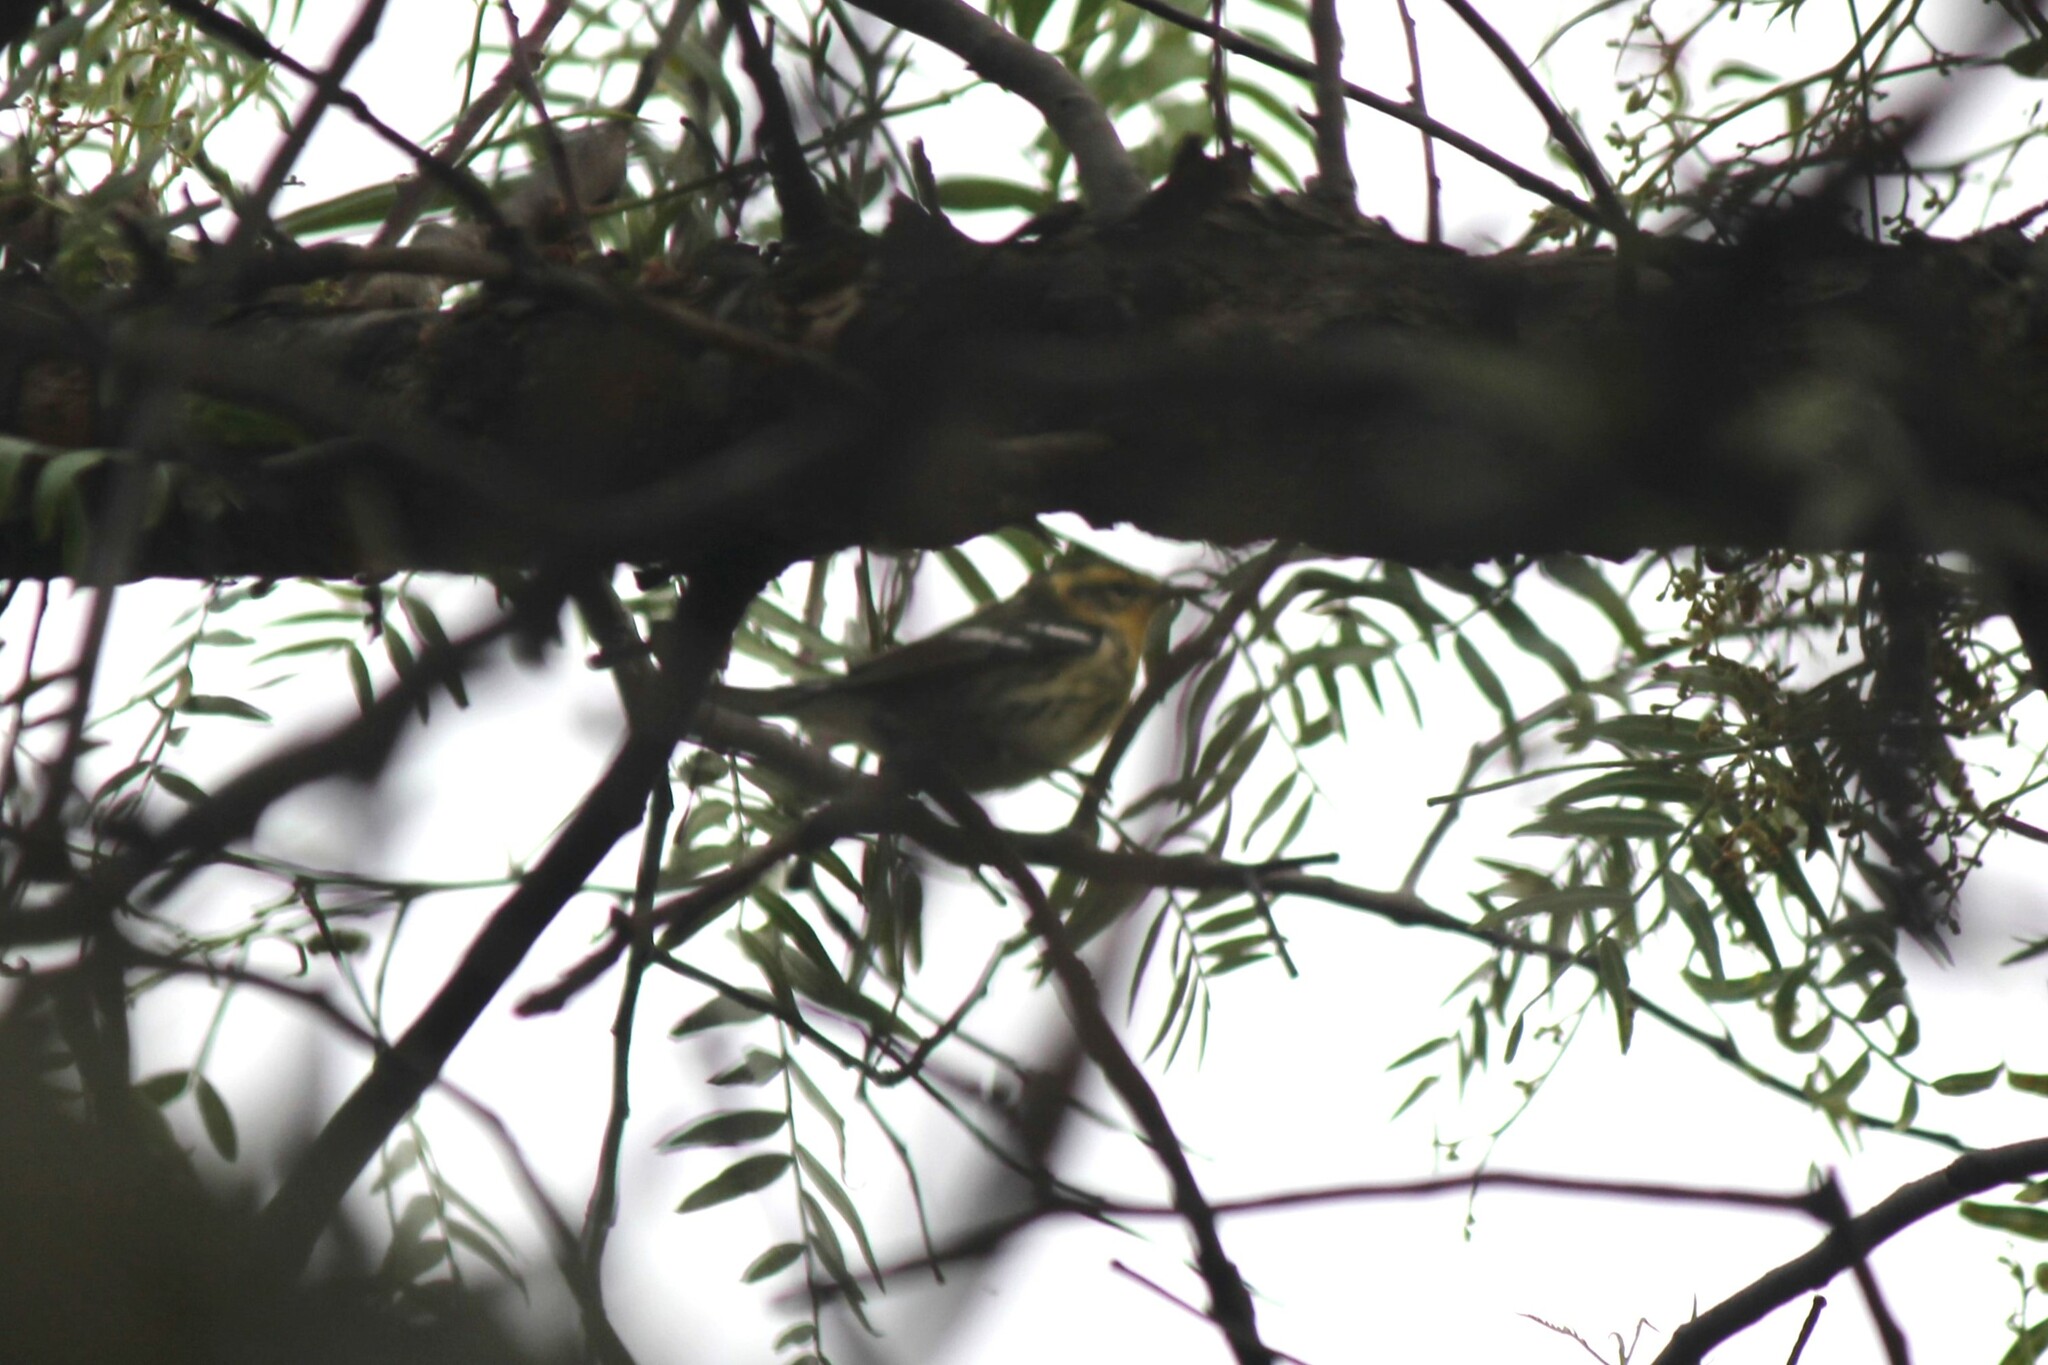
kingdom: Animalia
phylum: Chordata
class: Aves
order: Passeriformes
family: Parulidae
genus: Setophaga
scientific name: Setophaga fusca
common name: Blackburnian warbler
